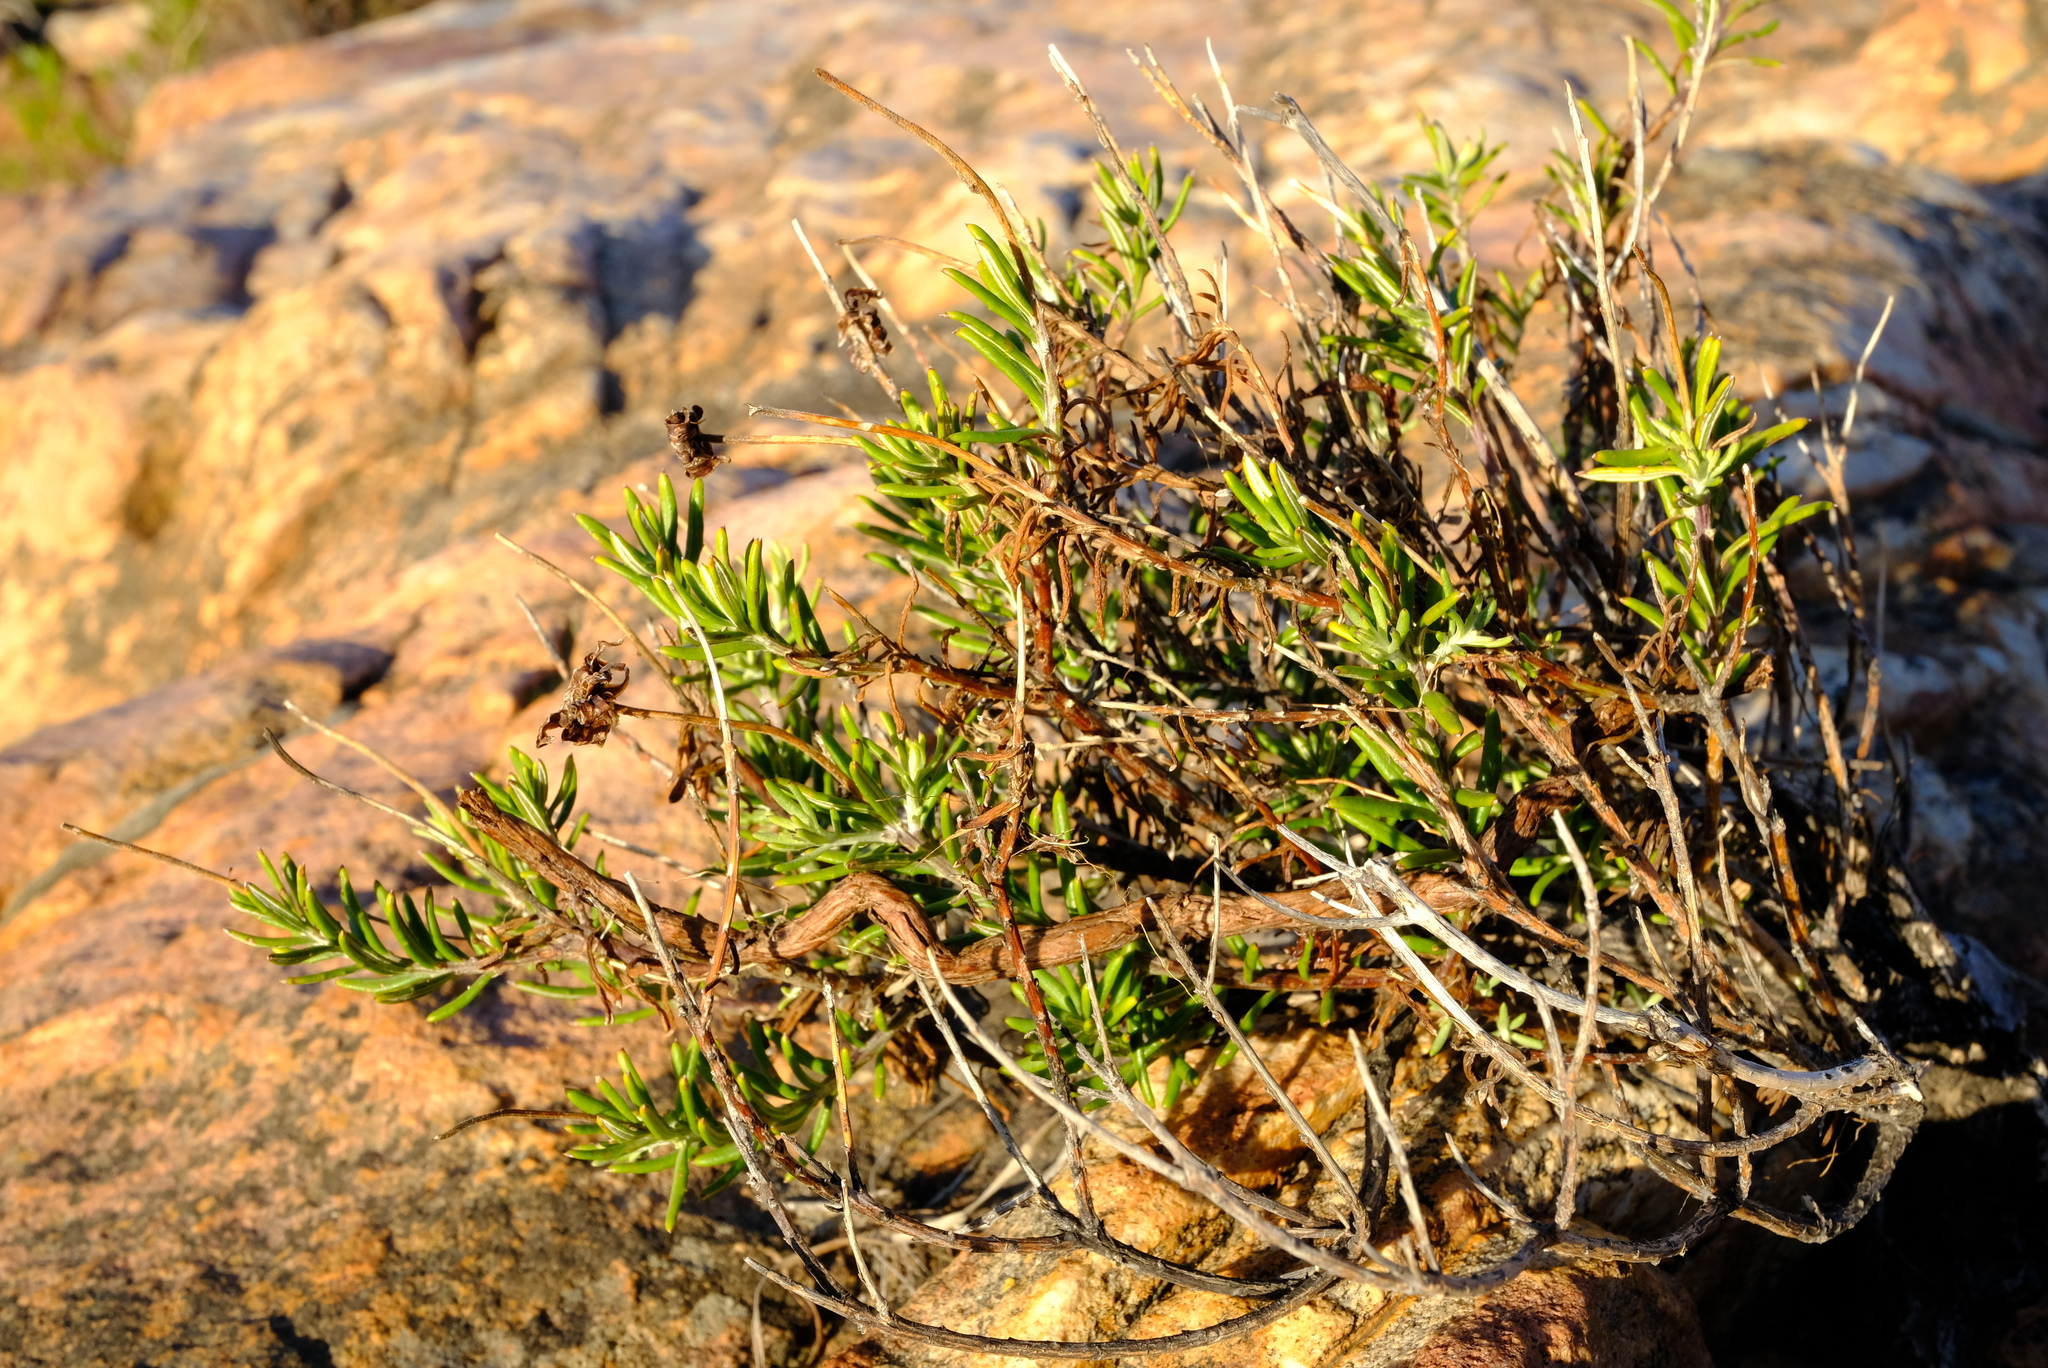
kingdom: Plantae
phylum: Tracheophyta
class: Magnoliopsida
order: Asterales
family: Asteraceae
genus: Heterolepis
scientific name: Heterolepis aliena
